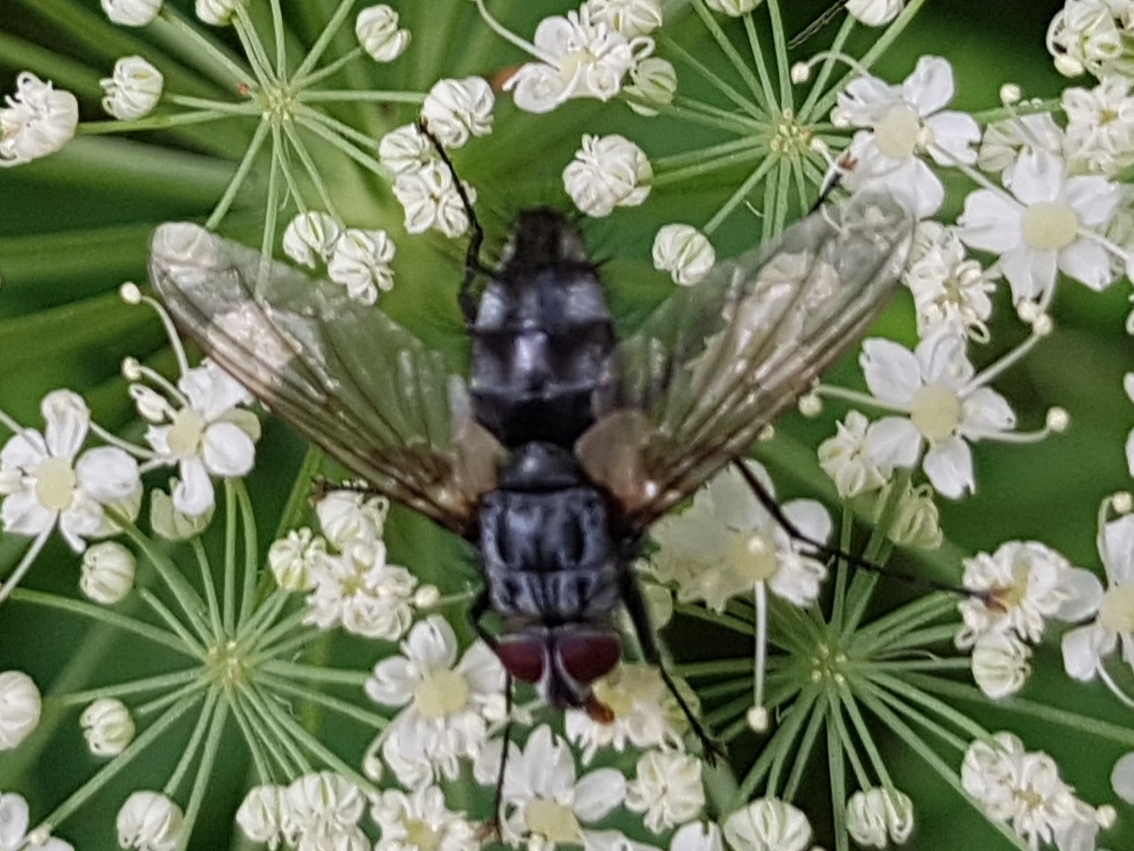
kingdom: Animalia
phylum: Arthropoda
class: Insecta
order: Diptera
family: Tachinidae
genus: Dinera
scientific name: Dinera ferina
